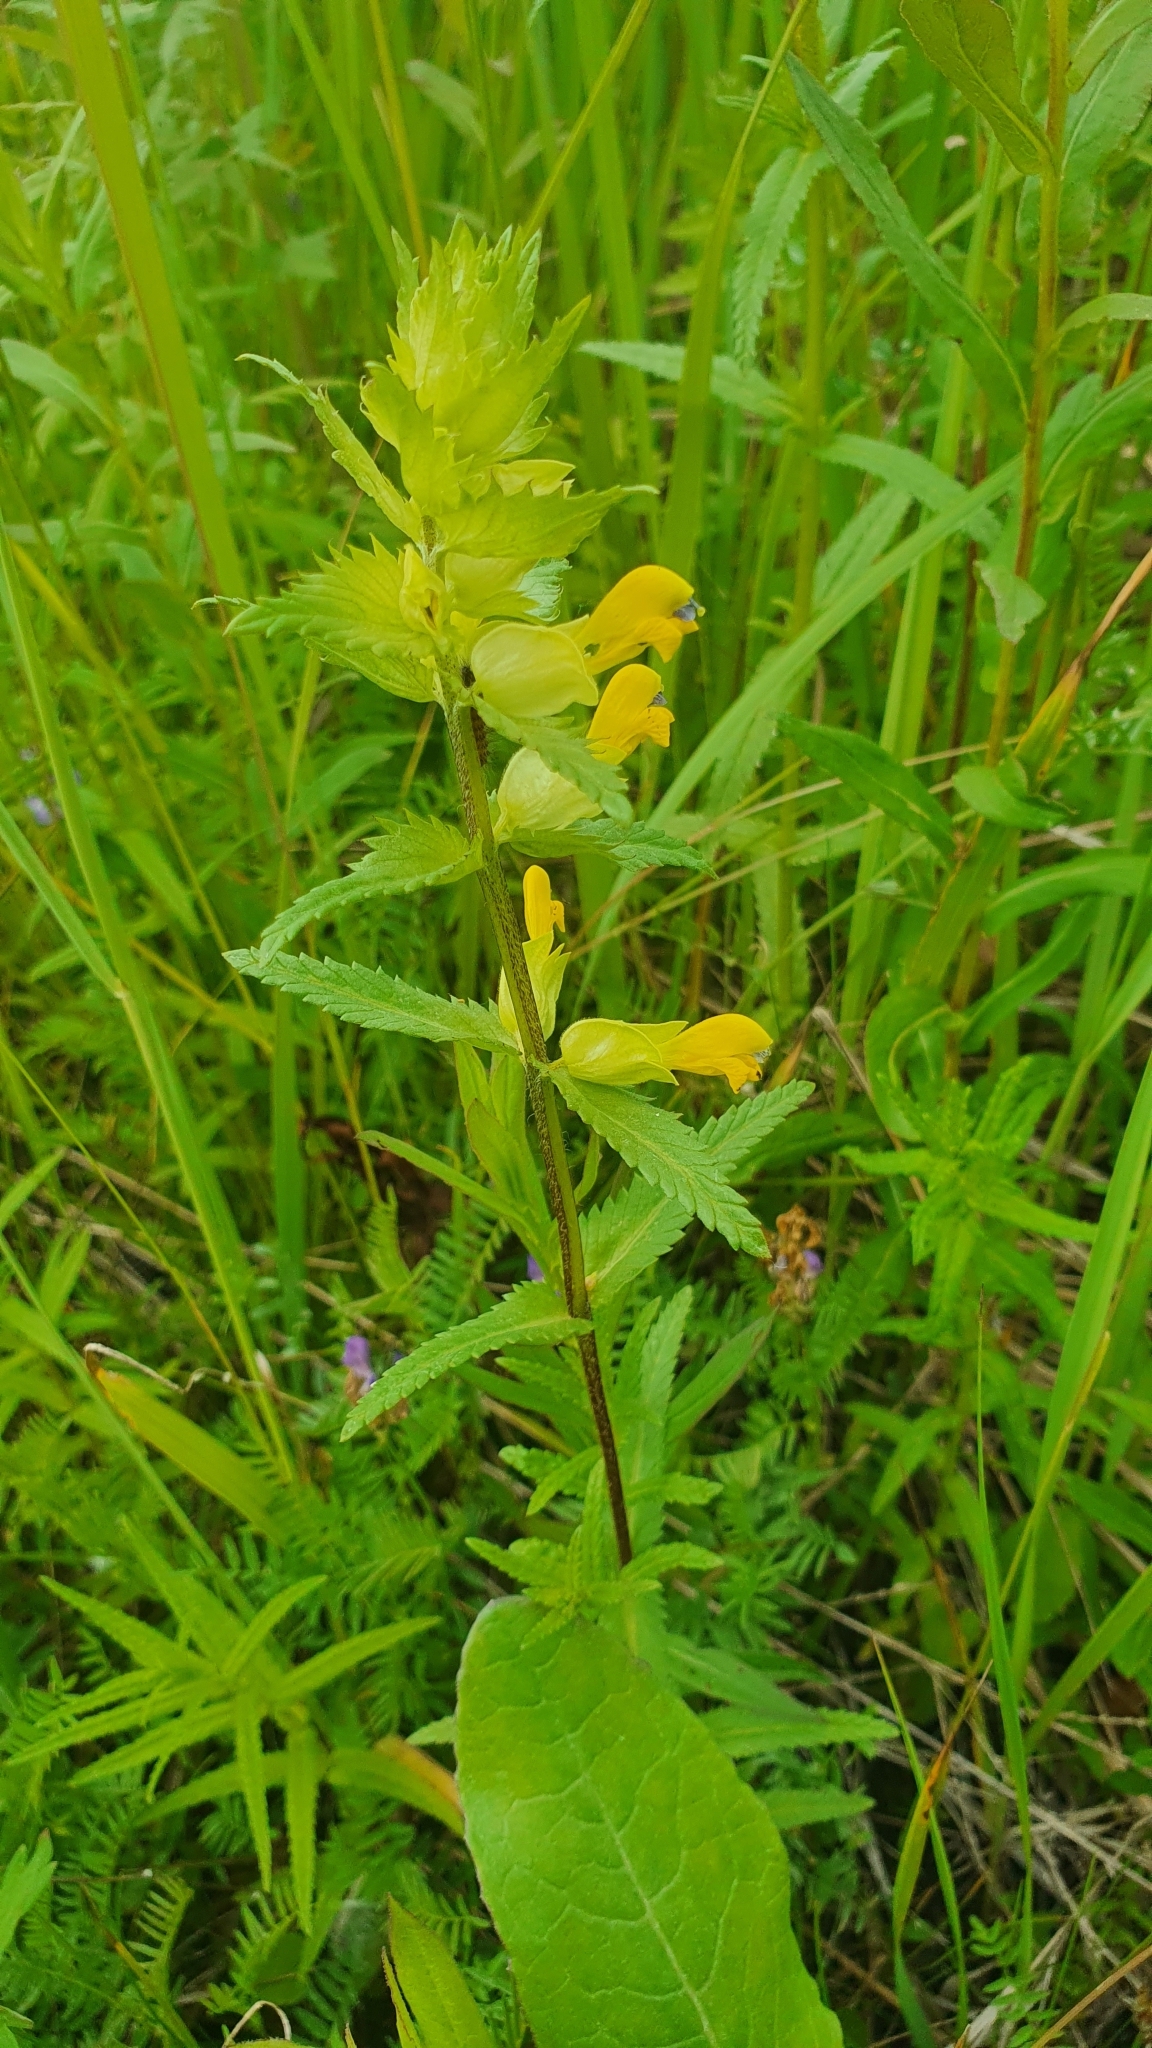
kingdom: Plantae
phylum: Tracheophyta
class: Magnoliopsida
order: Lamiales
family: Orobanchaceae
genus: Rhinanthus
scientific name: Rhinanthus serotinus
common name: Late-flowering yellow rattle
